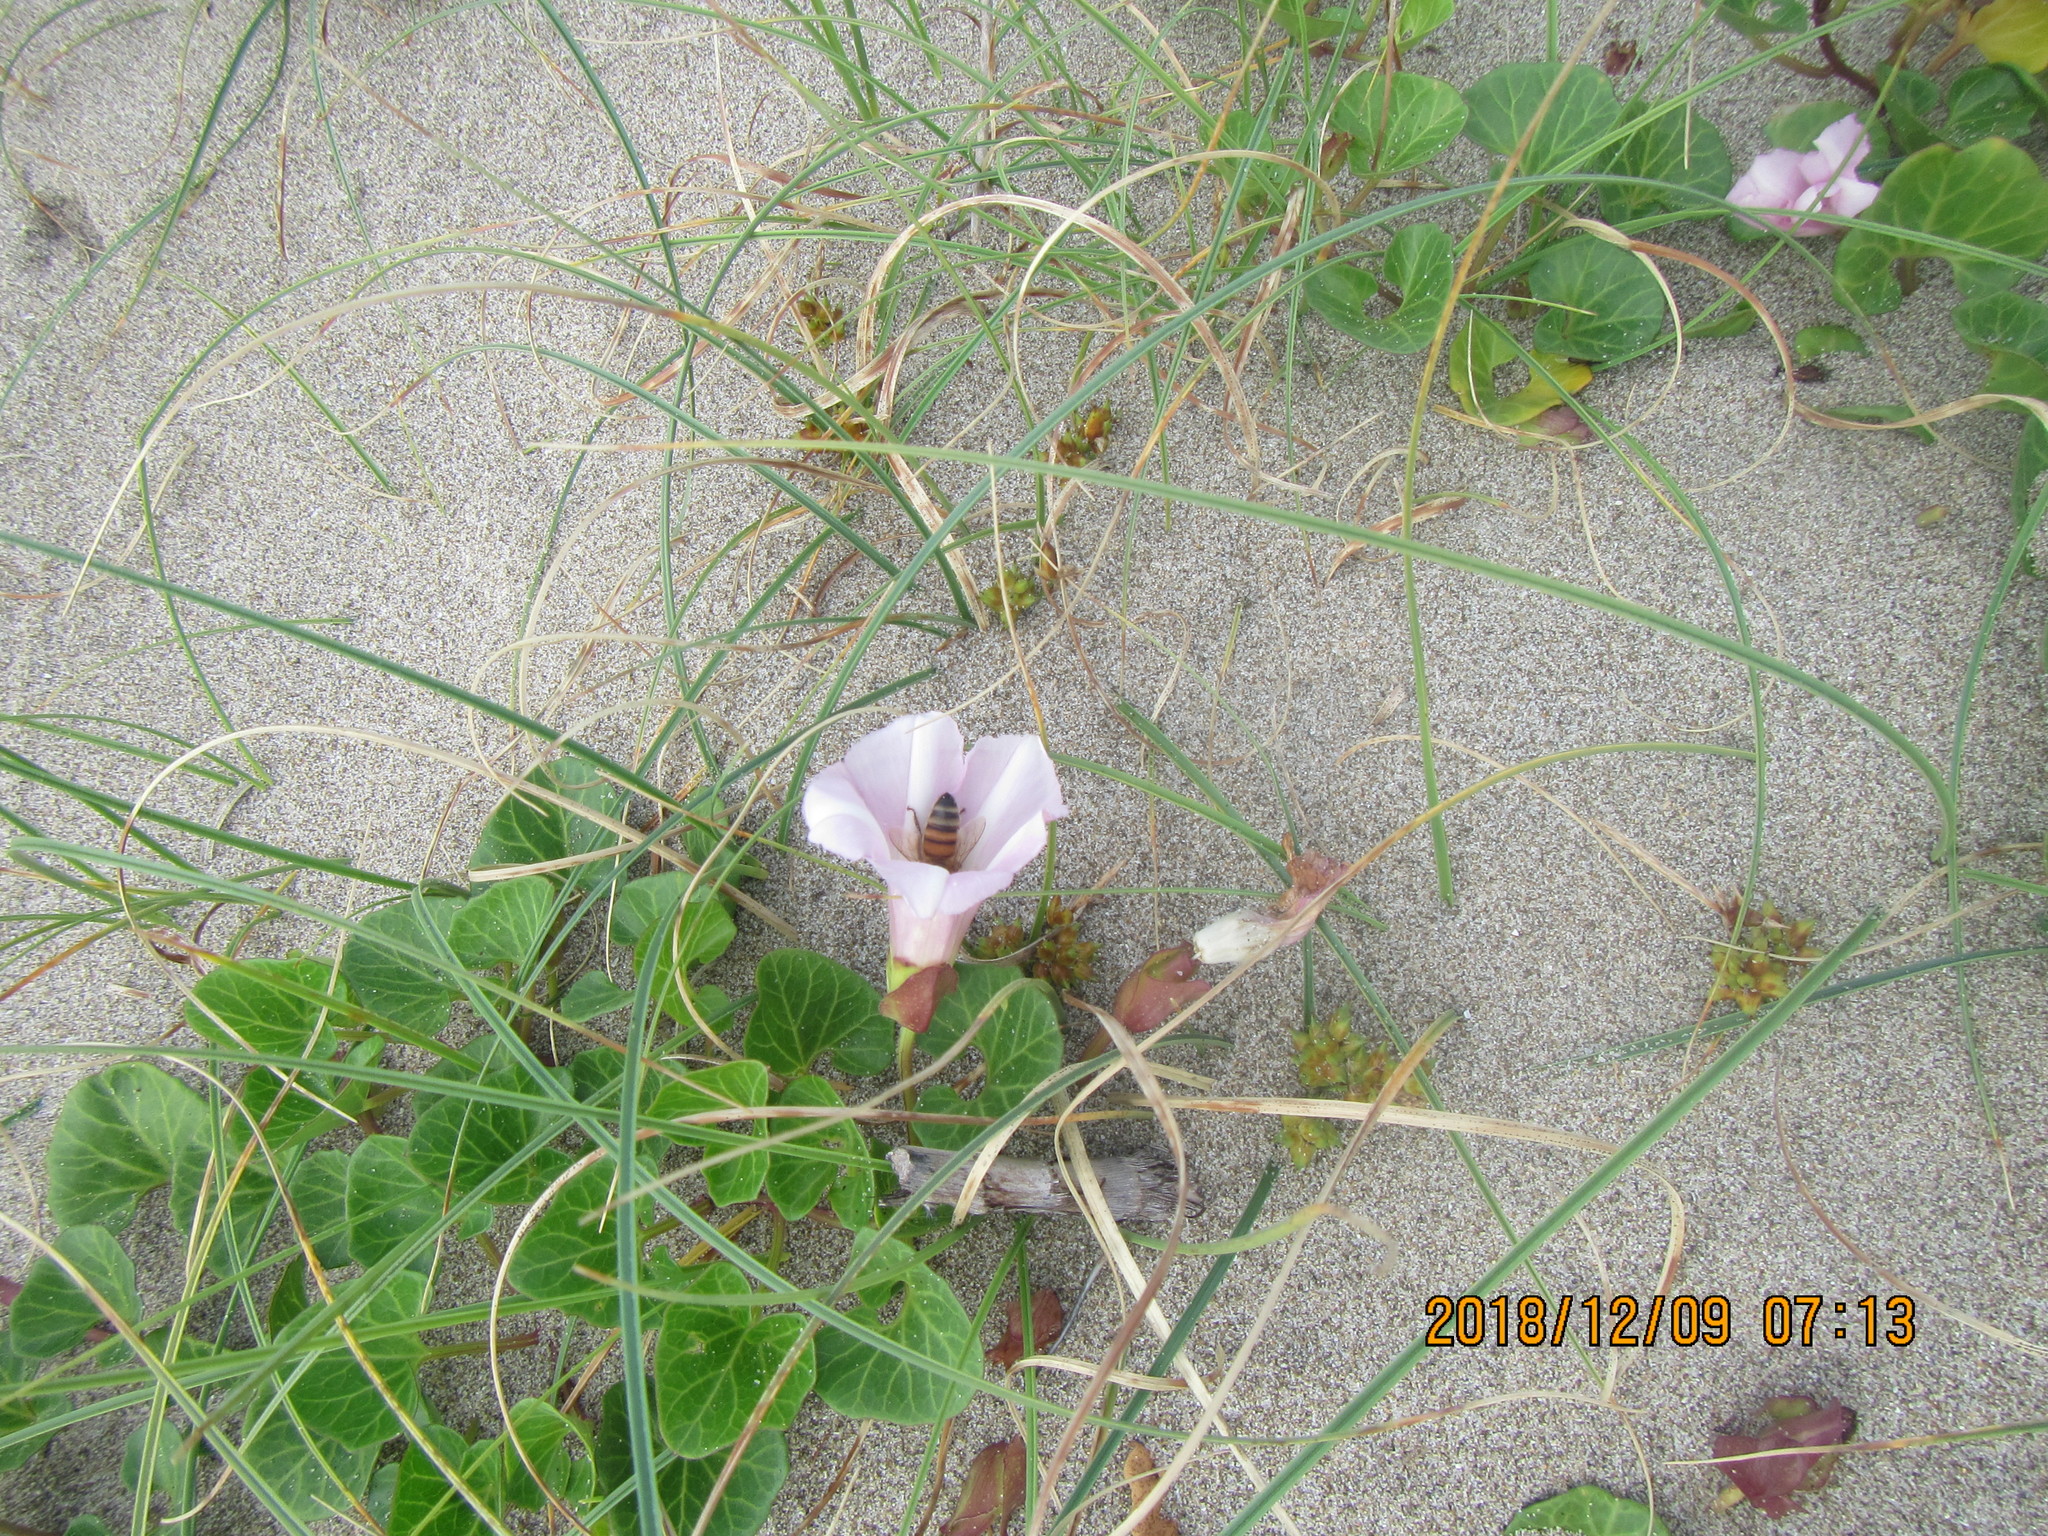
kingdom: Plantae
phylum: Tracheophyta
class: Magnoliopsida
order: Solanales
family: Convolvulaceae
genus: Calystegia
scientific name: Calystegia soldanella
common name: Sea bindweed
